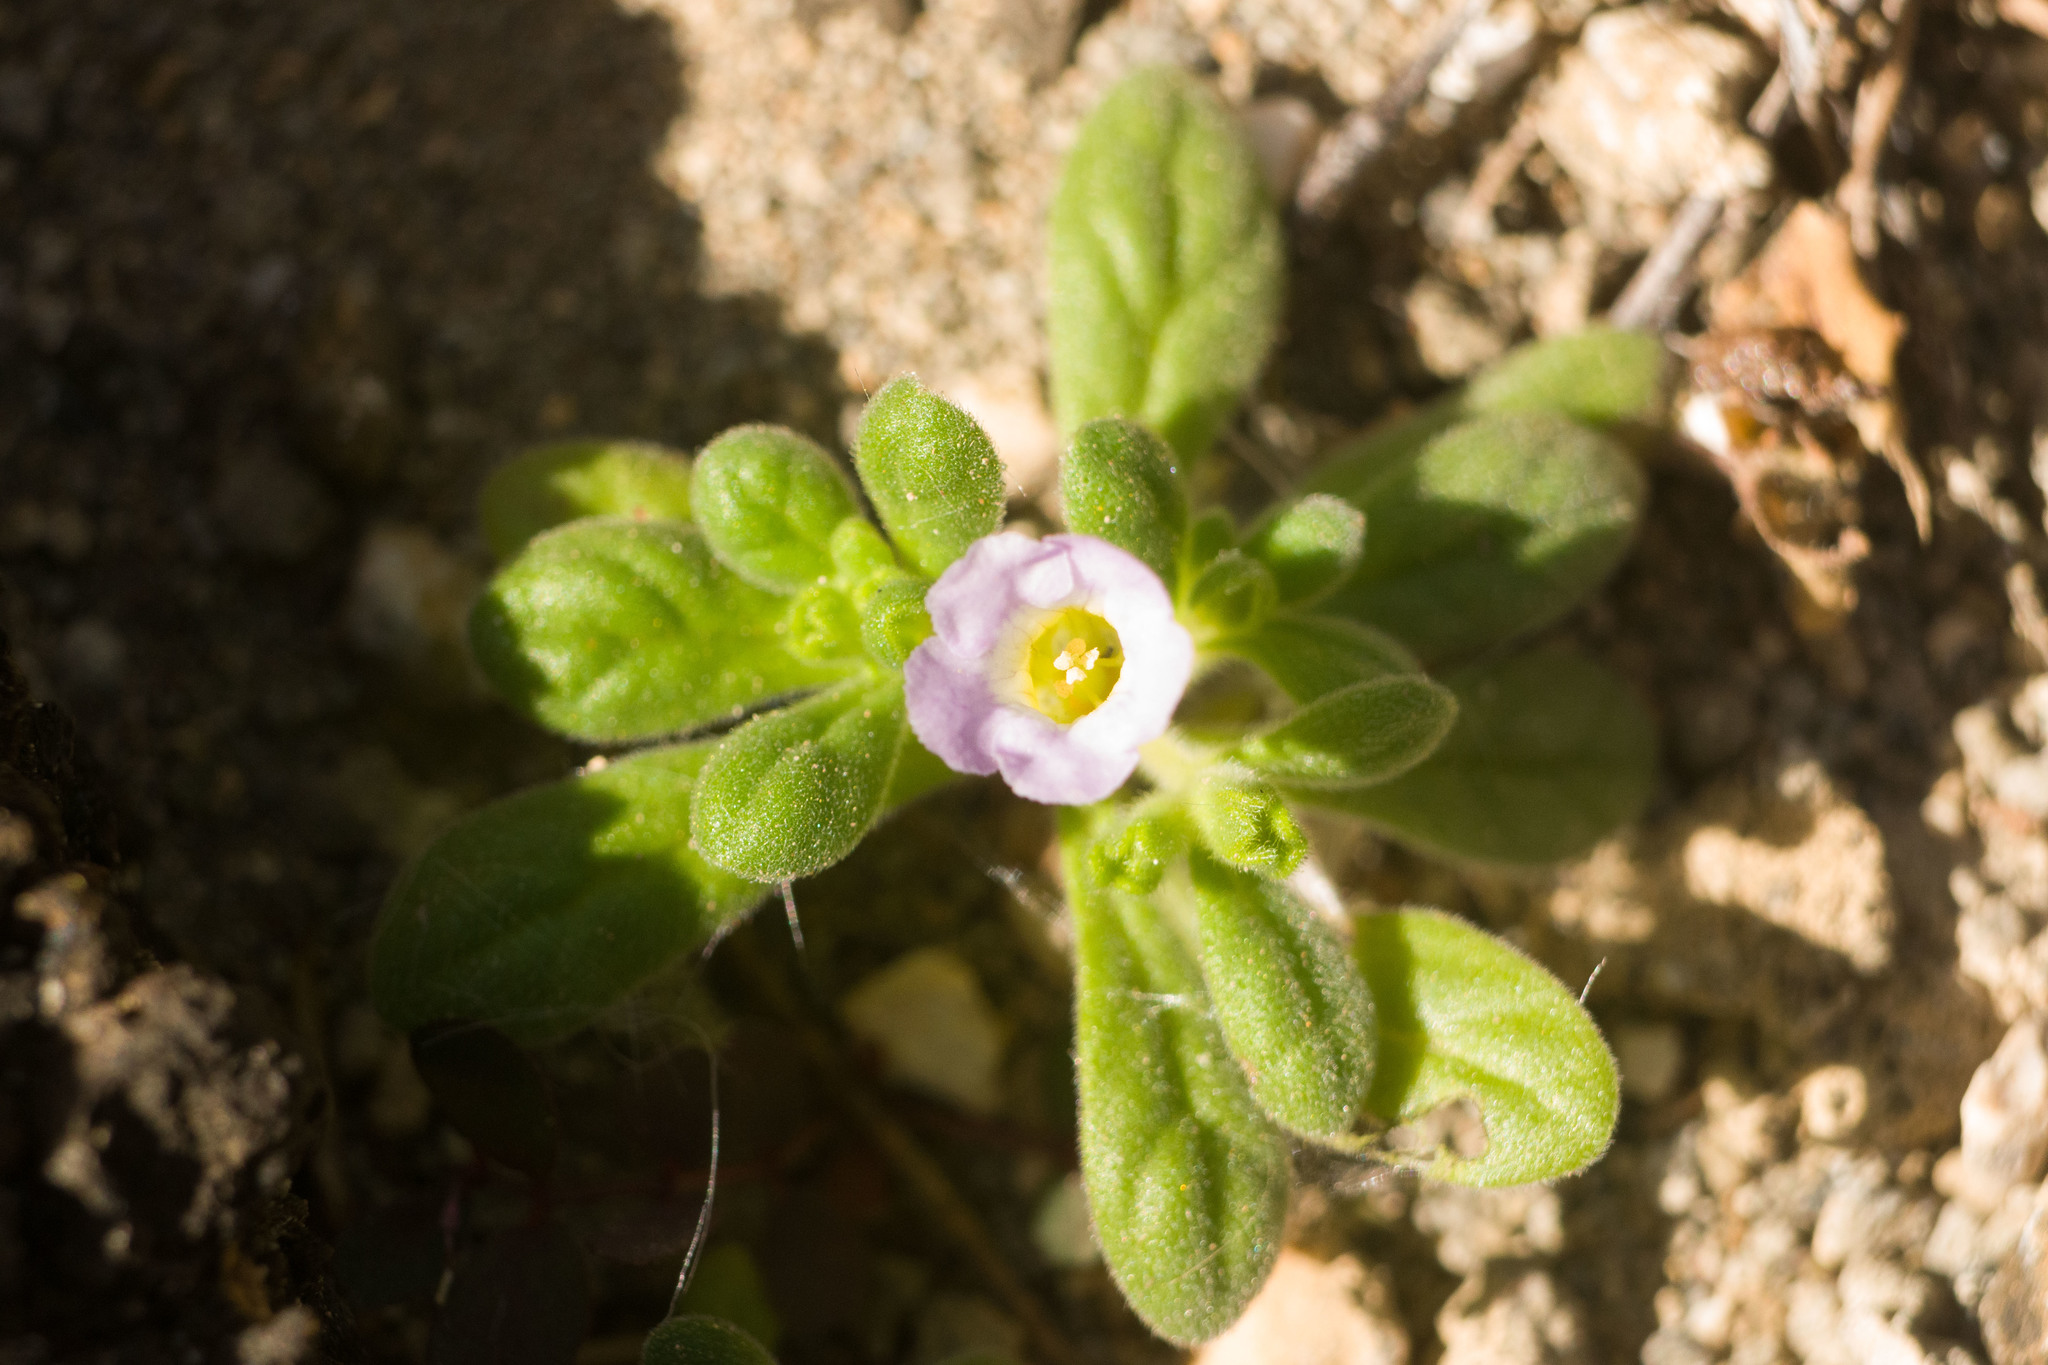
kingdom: Plantae
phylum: Tracheophyta
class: Magnoliopsida
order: Boraginales
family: Namaceae
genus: Nama
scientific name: Nama sandwicense
